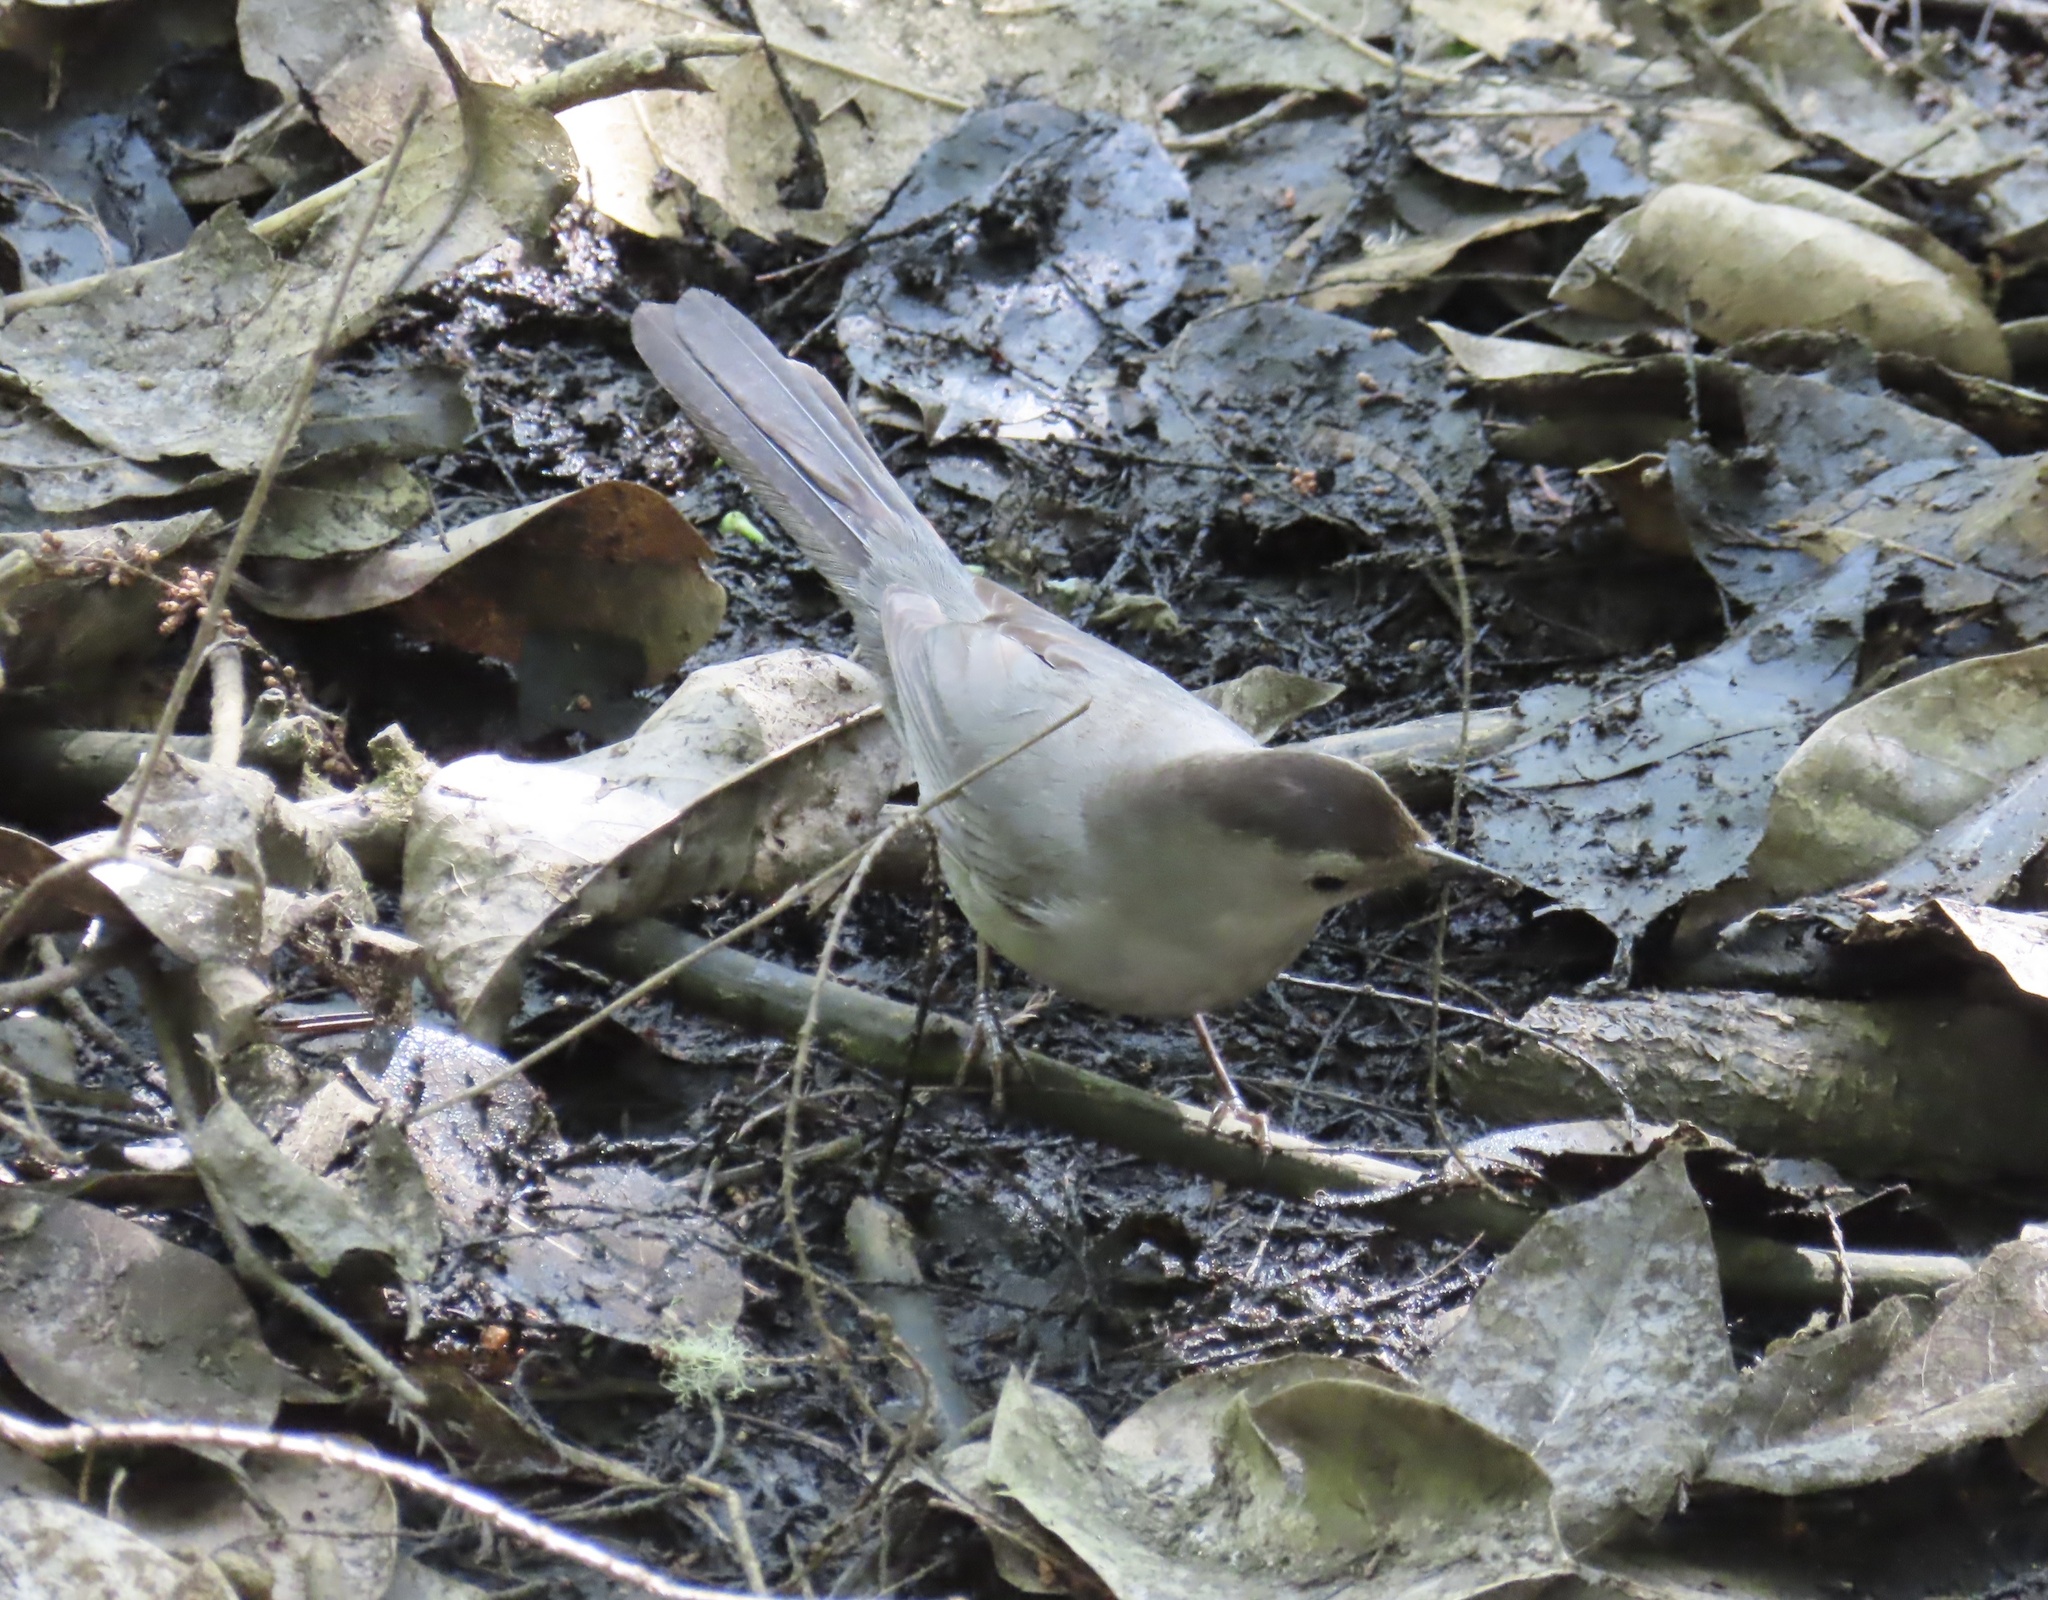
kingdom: Animalia
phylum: Chordata
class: Aves
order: Passeriformes
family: Mimidae
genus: Dumetella
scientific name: Dumetella carolinensis
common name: Gray catbird
